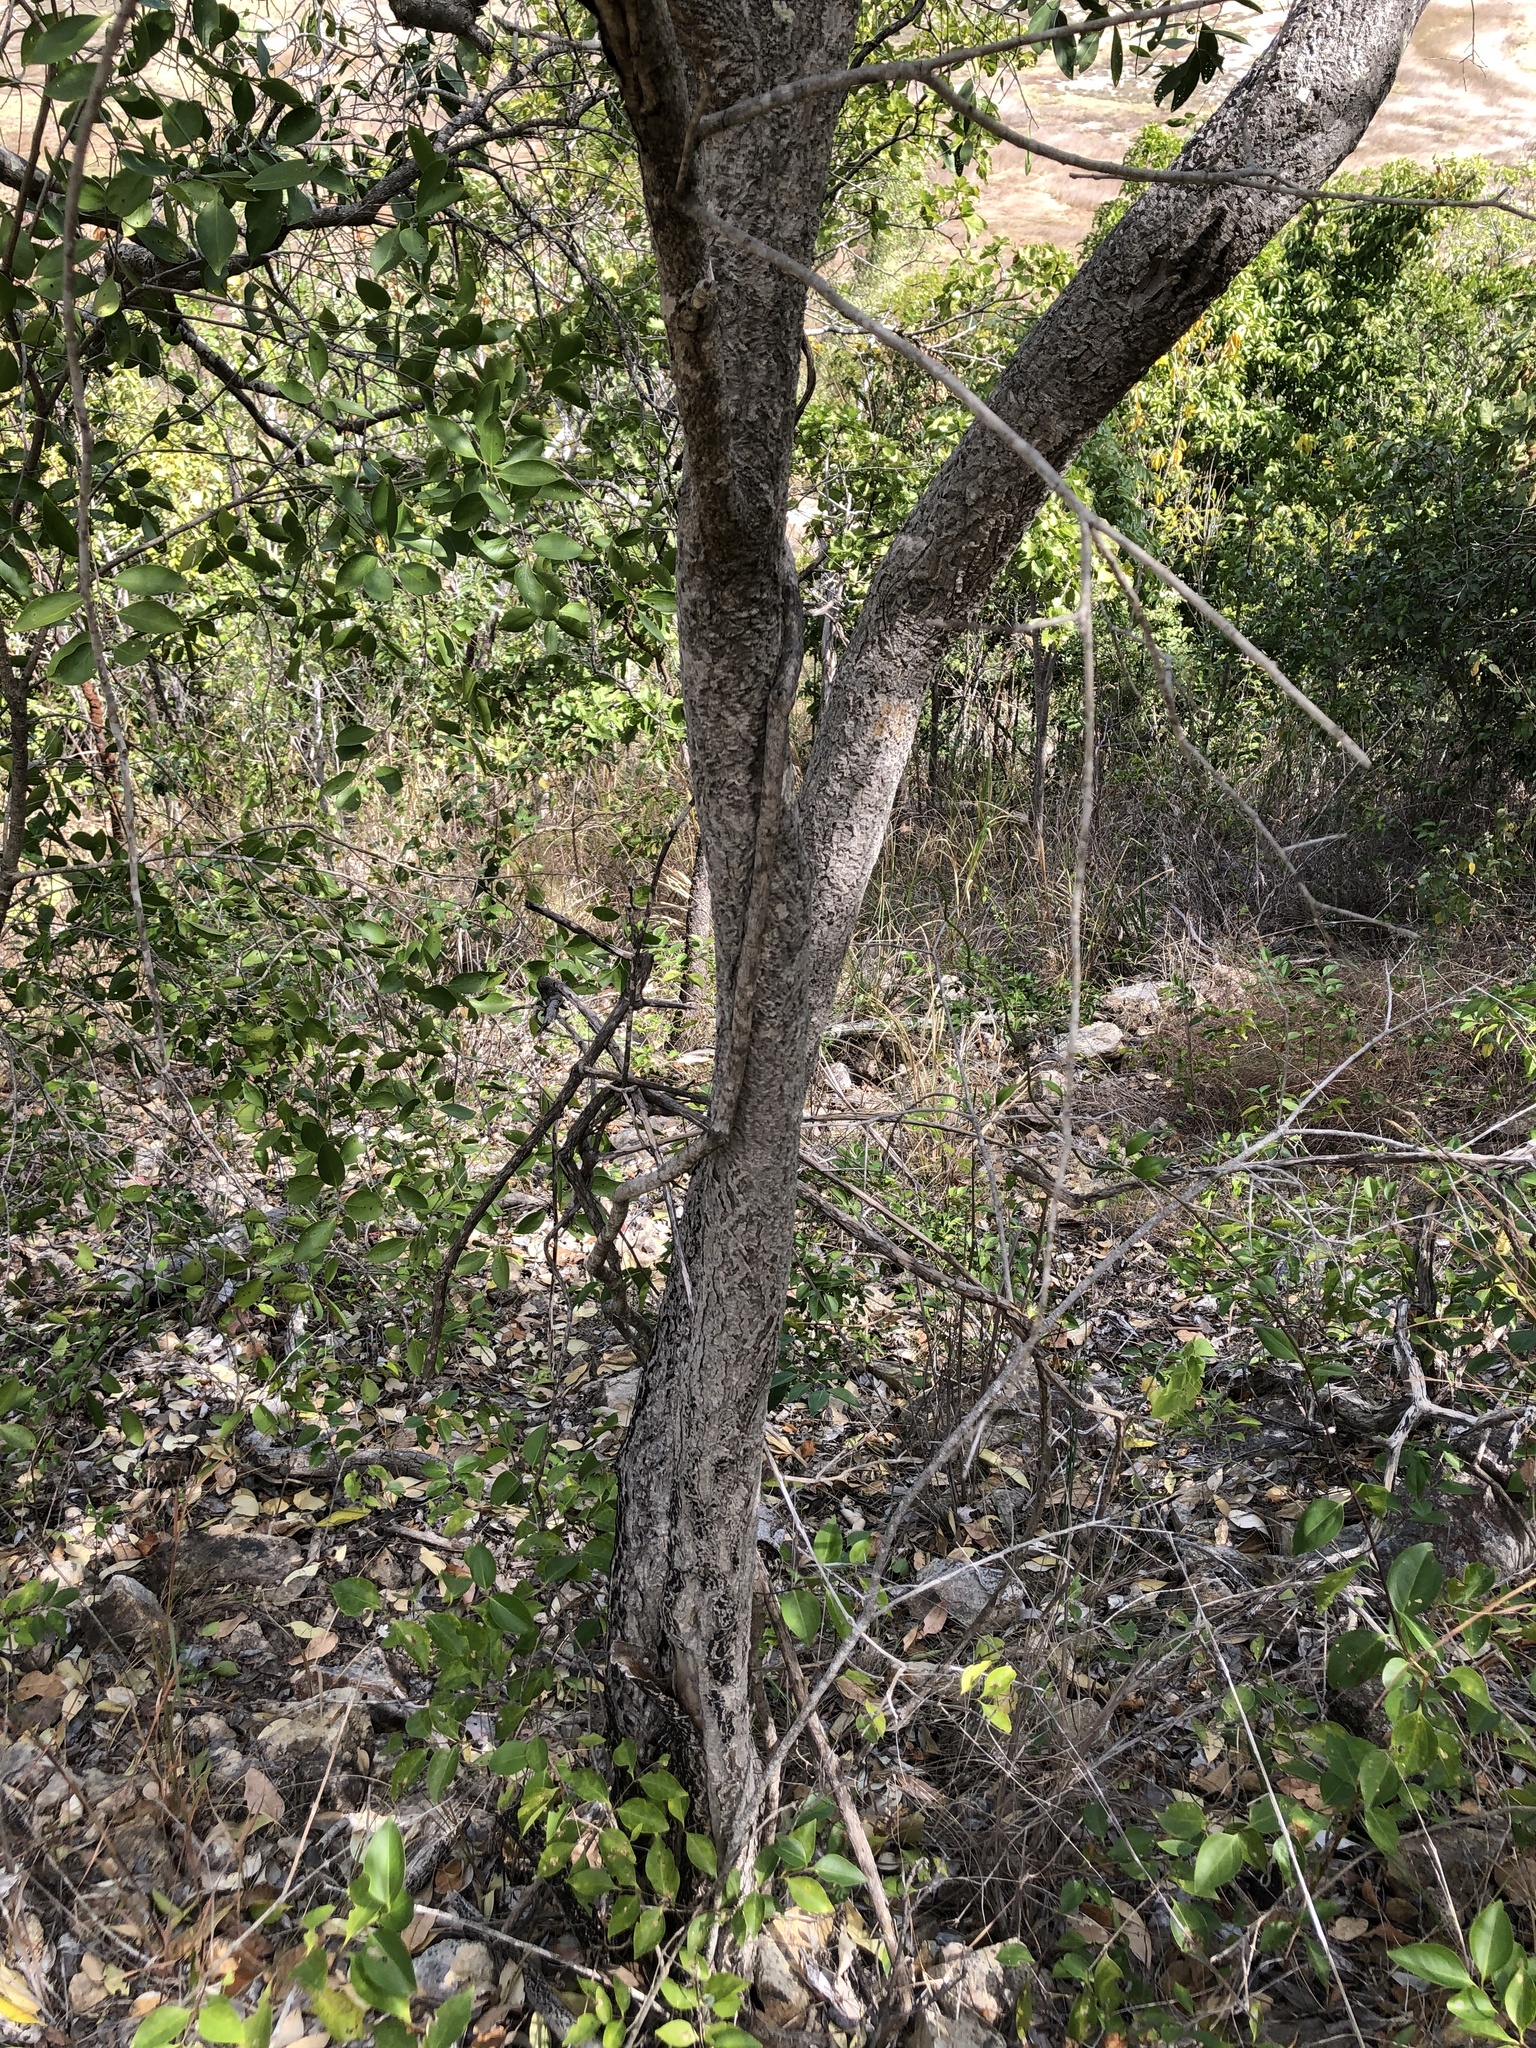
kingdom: Plantae
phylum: Tracheophyta
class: Magnoliopsida
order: Celastrales
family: Celastraceae
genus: Denhamia
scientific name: Denhamia disperma
